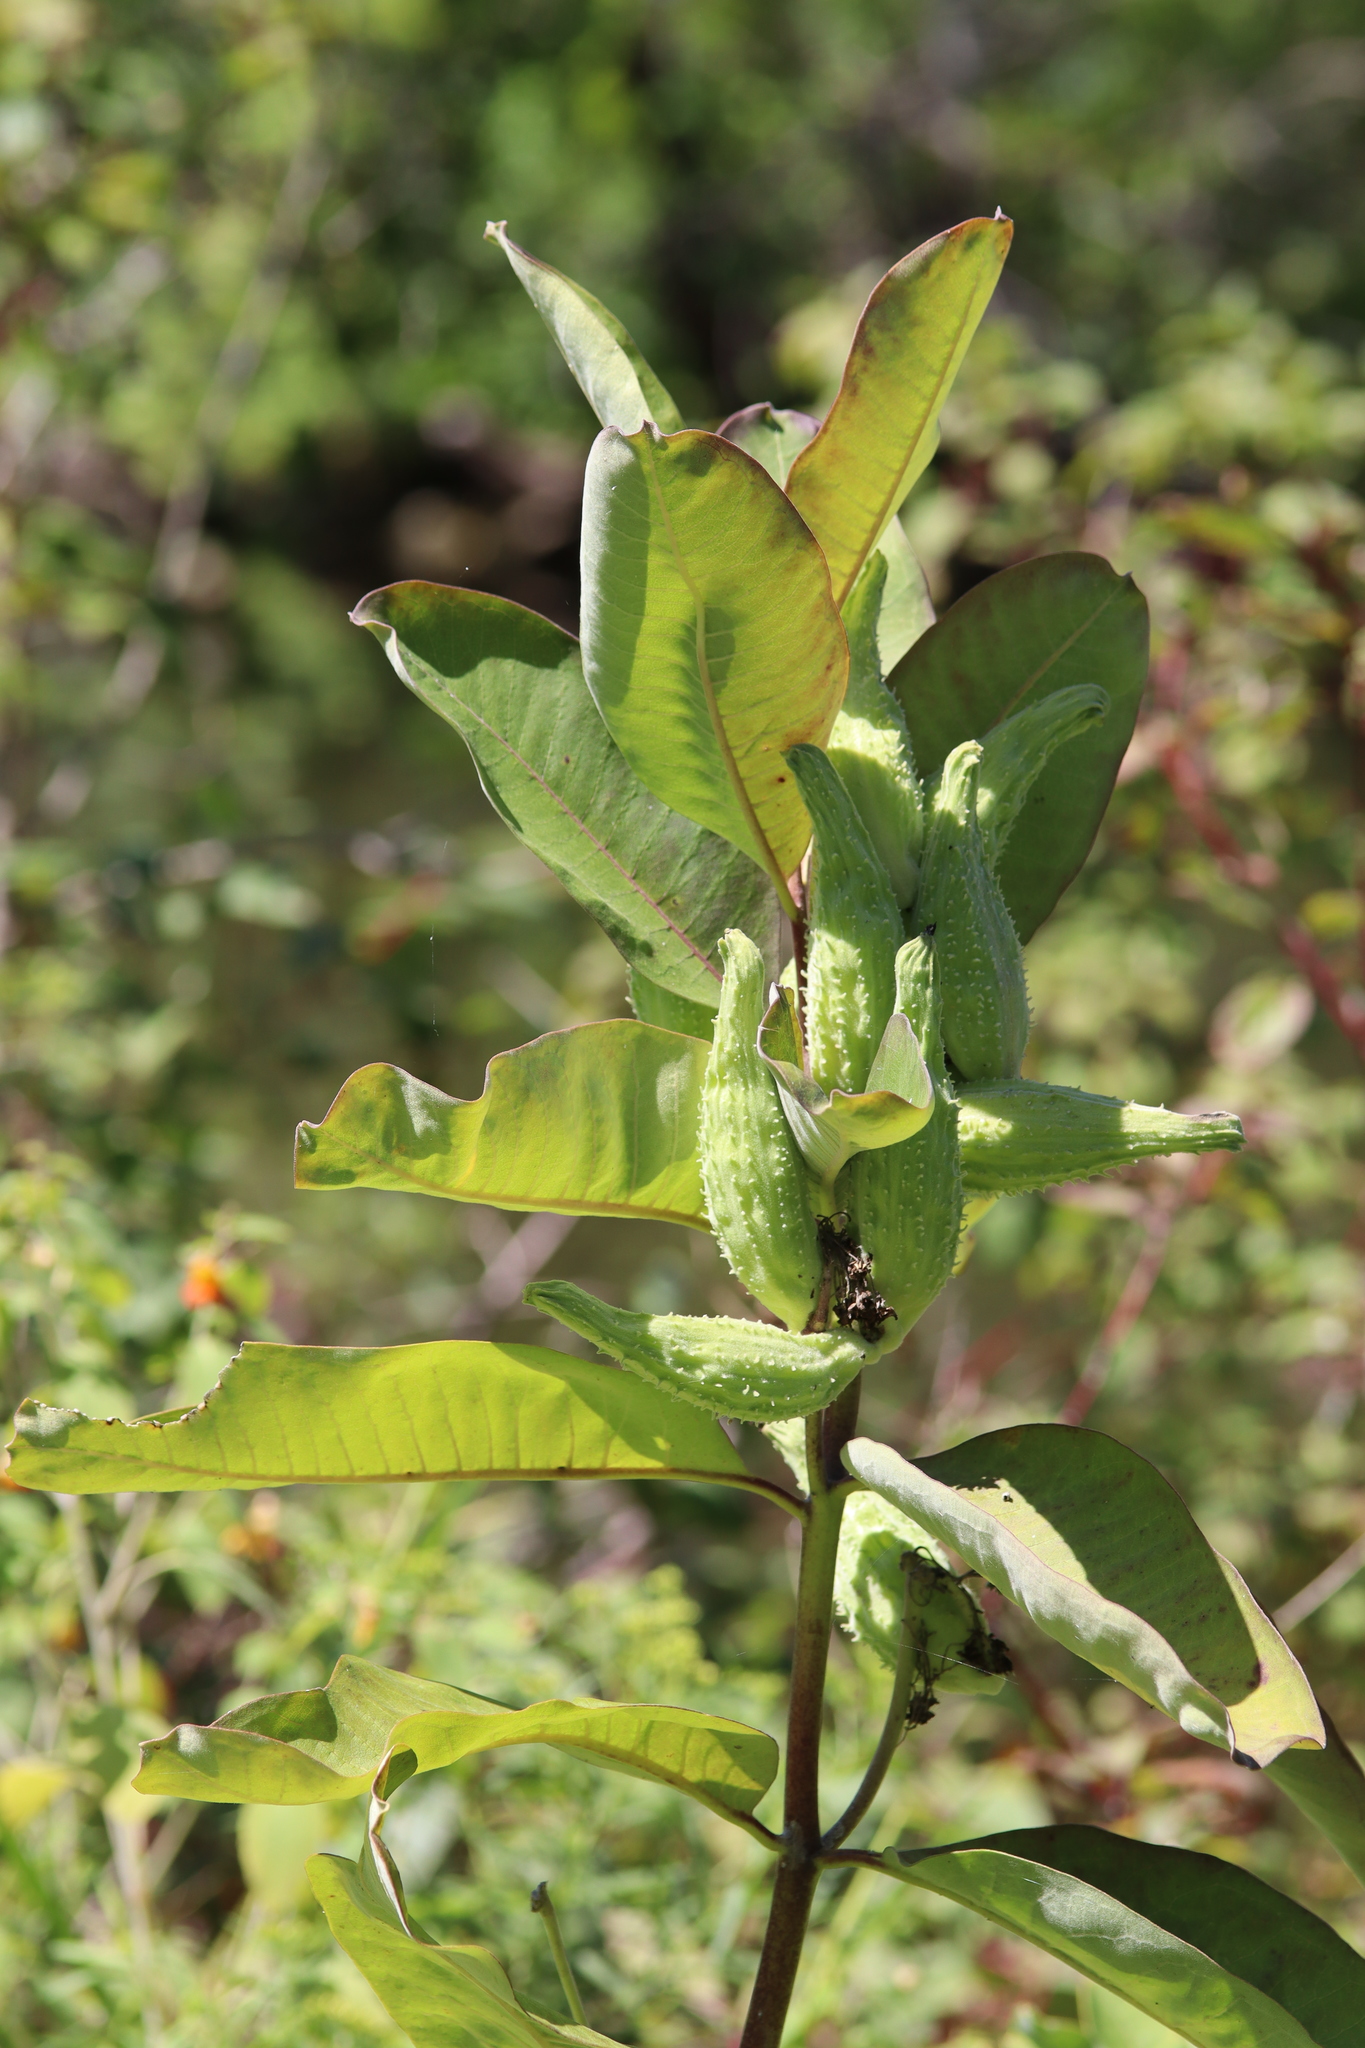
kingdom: Plantae
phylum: Tracheophyta
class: Magnoliopsida
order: Gentianales
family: Apocynaceae
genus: Asclepias
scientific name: Asclepias syriaca
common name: Common milkweed
